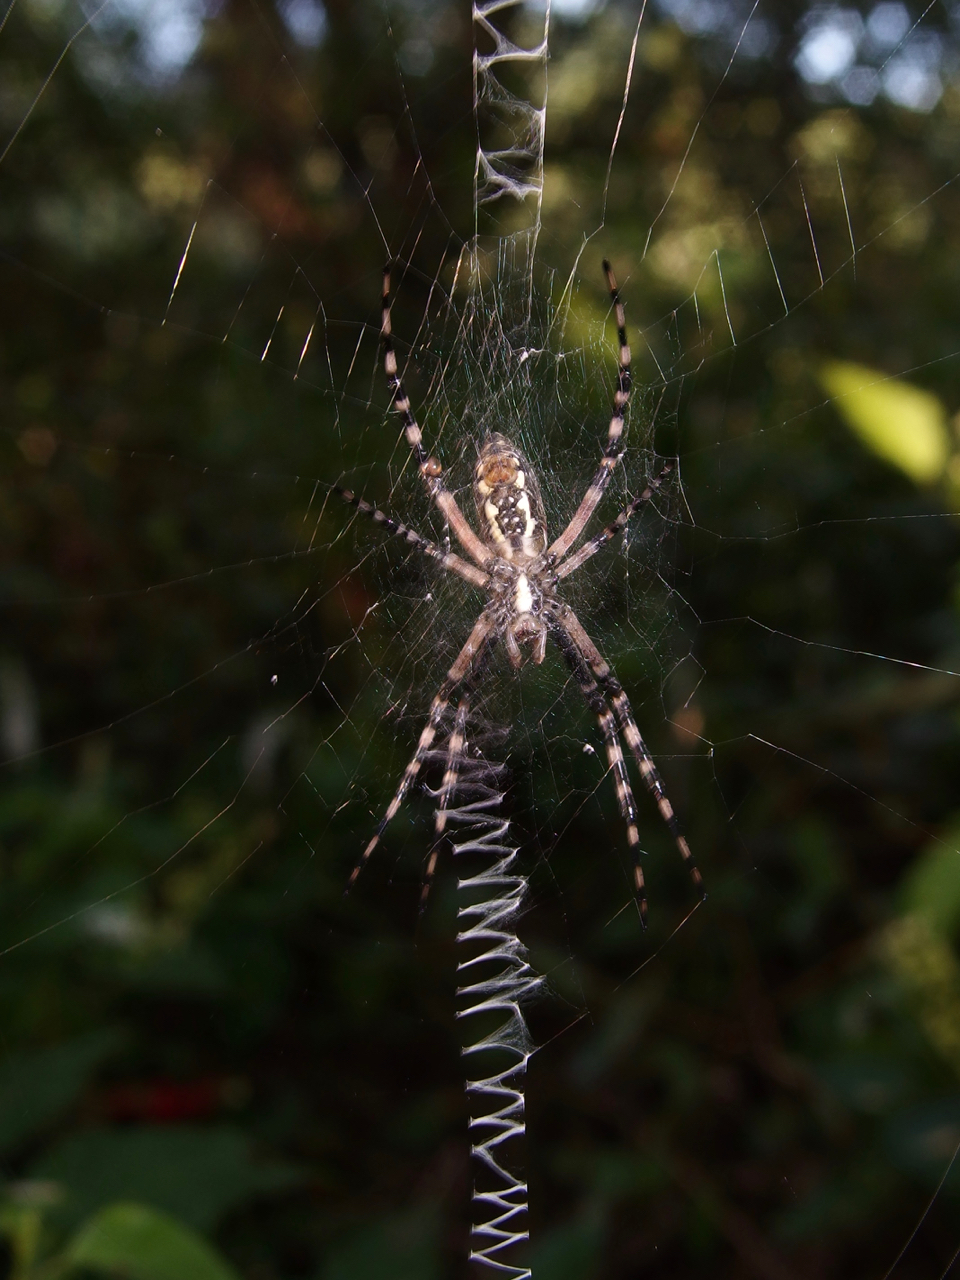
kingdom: Animalia
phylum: Arthropoda
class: Arachnida
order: Araneae
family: Araneidae
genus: Argiope
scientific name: Argiope aurantia
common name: Orb weavers
